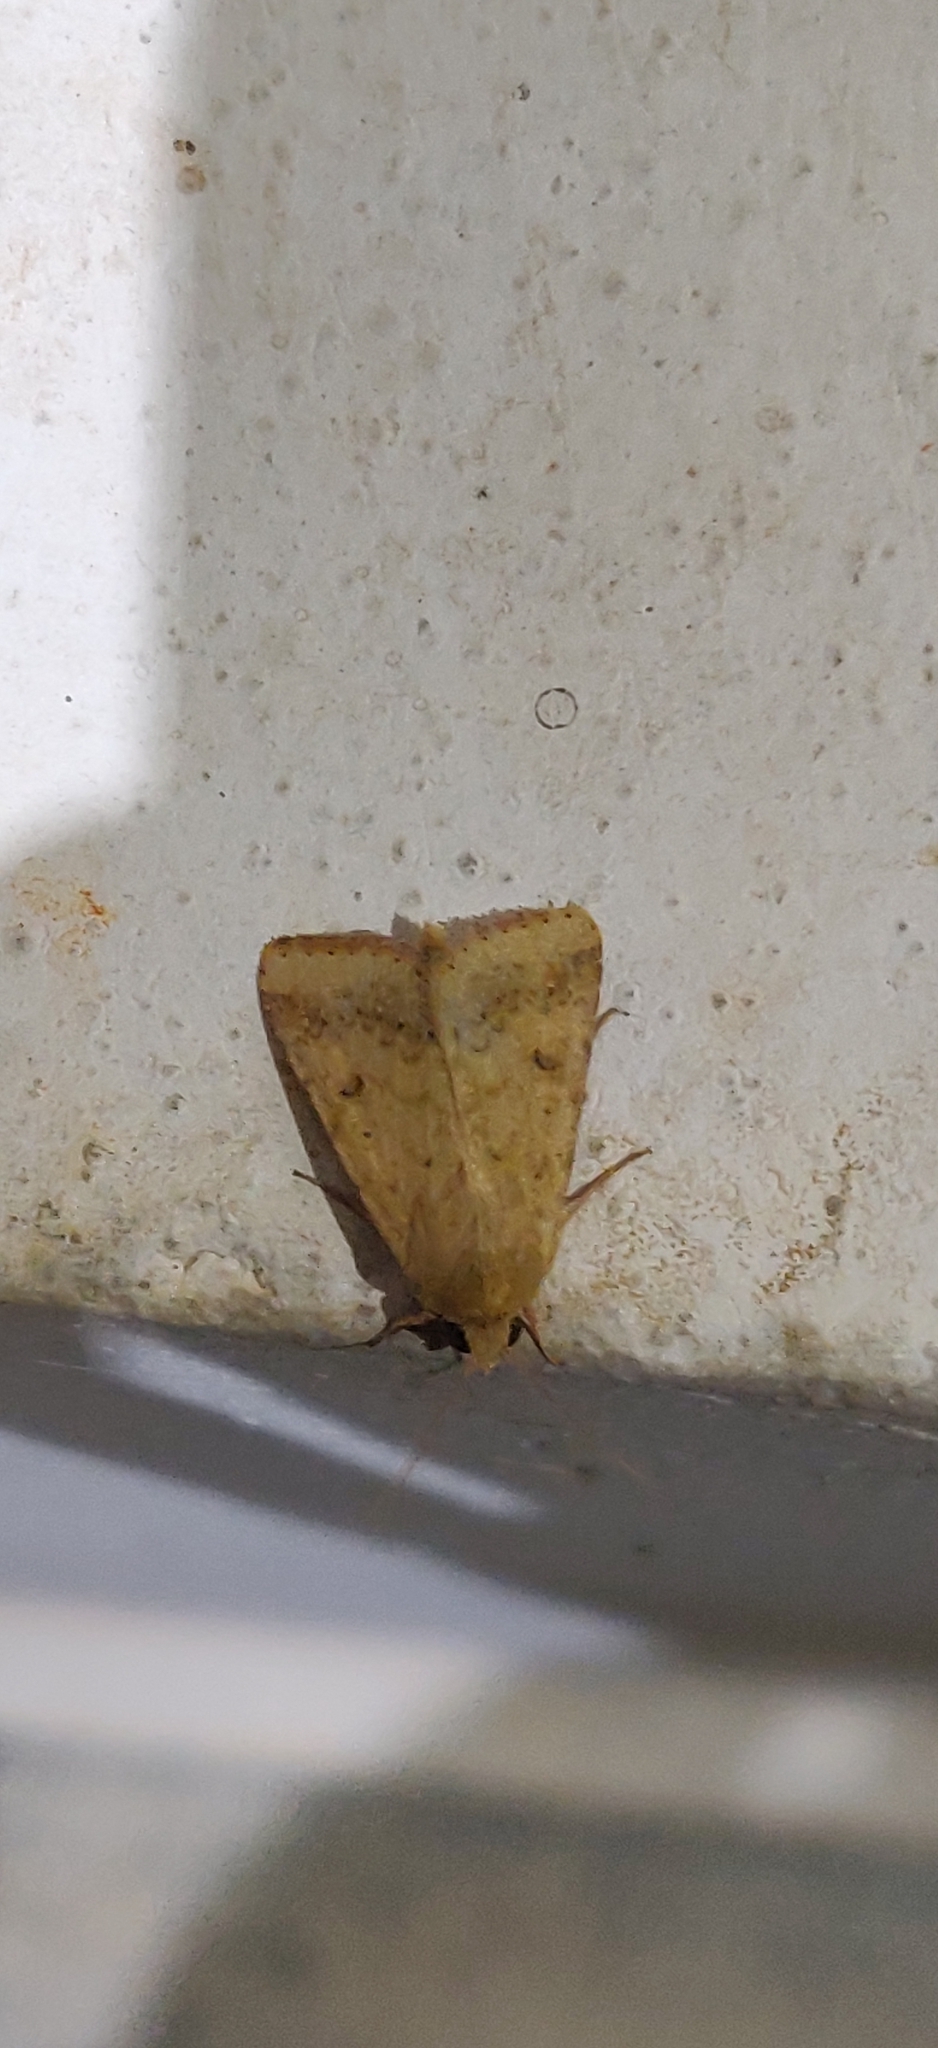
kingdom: Animalia
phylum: Arthropoda
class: Insecta
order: Lepidoptera
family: Noctuidae
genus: Helicoverpa
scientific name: Helicoverpa armigera
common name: Cotton bollworm
